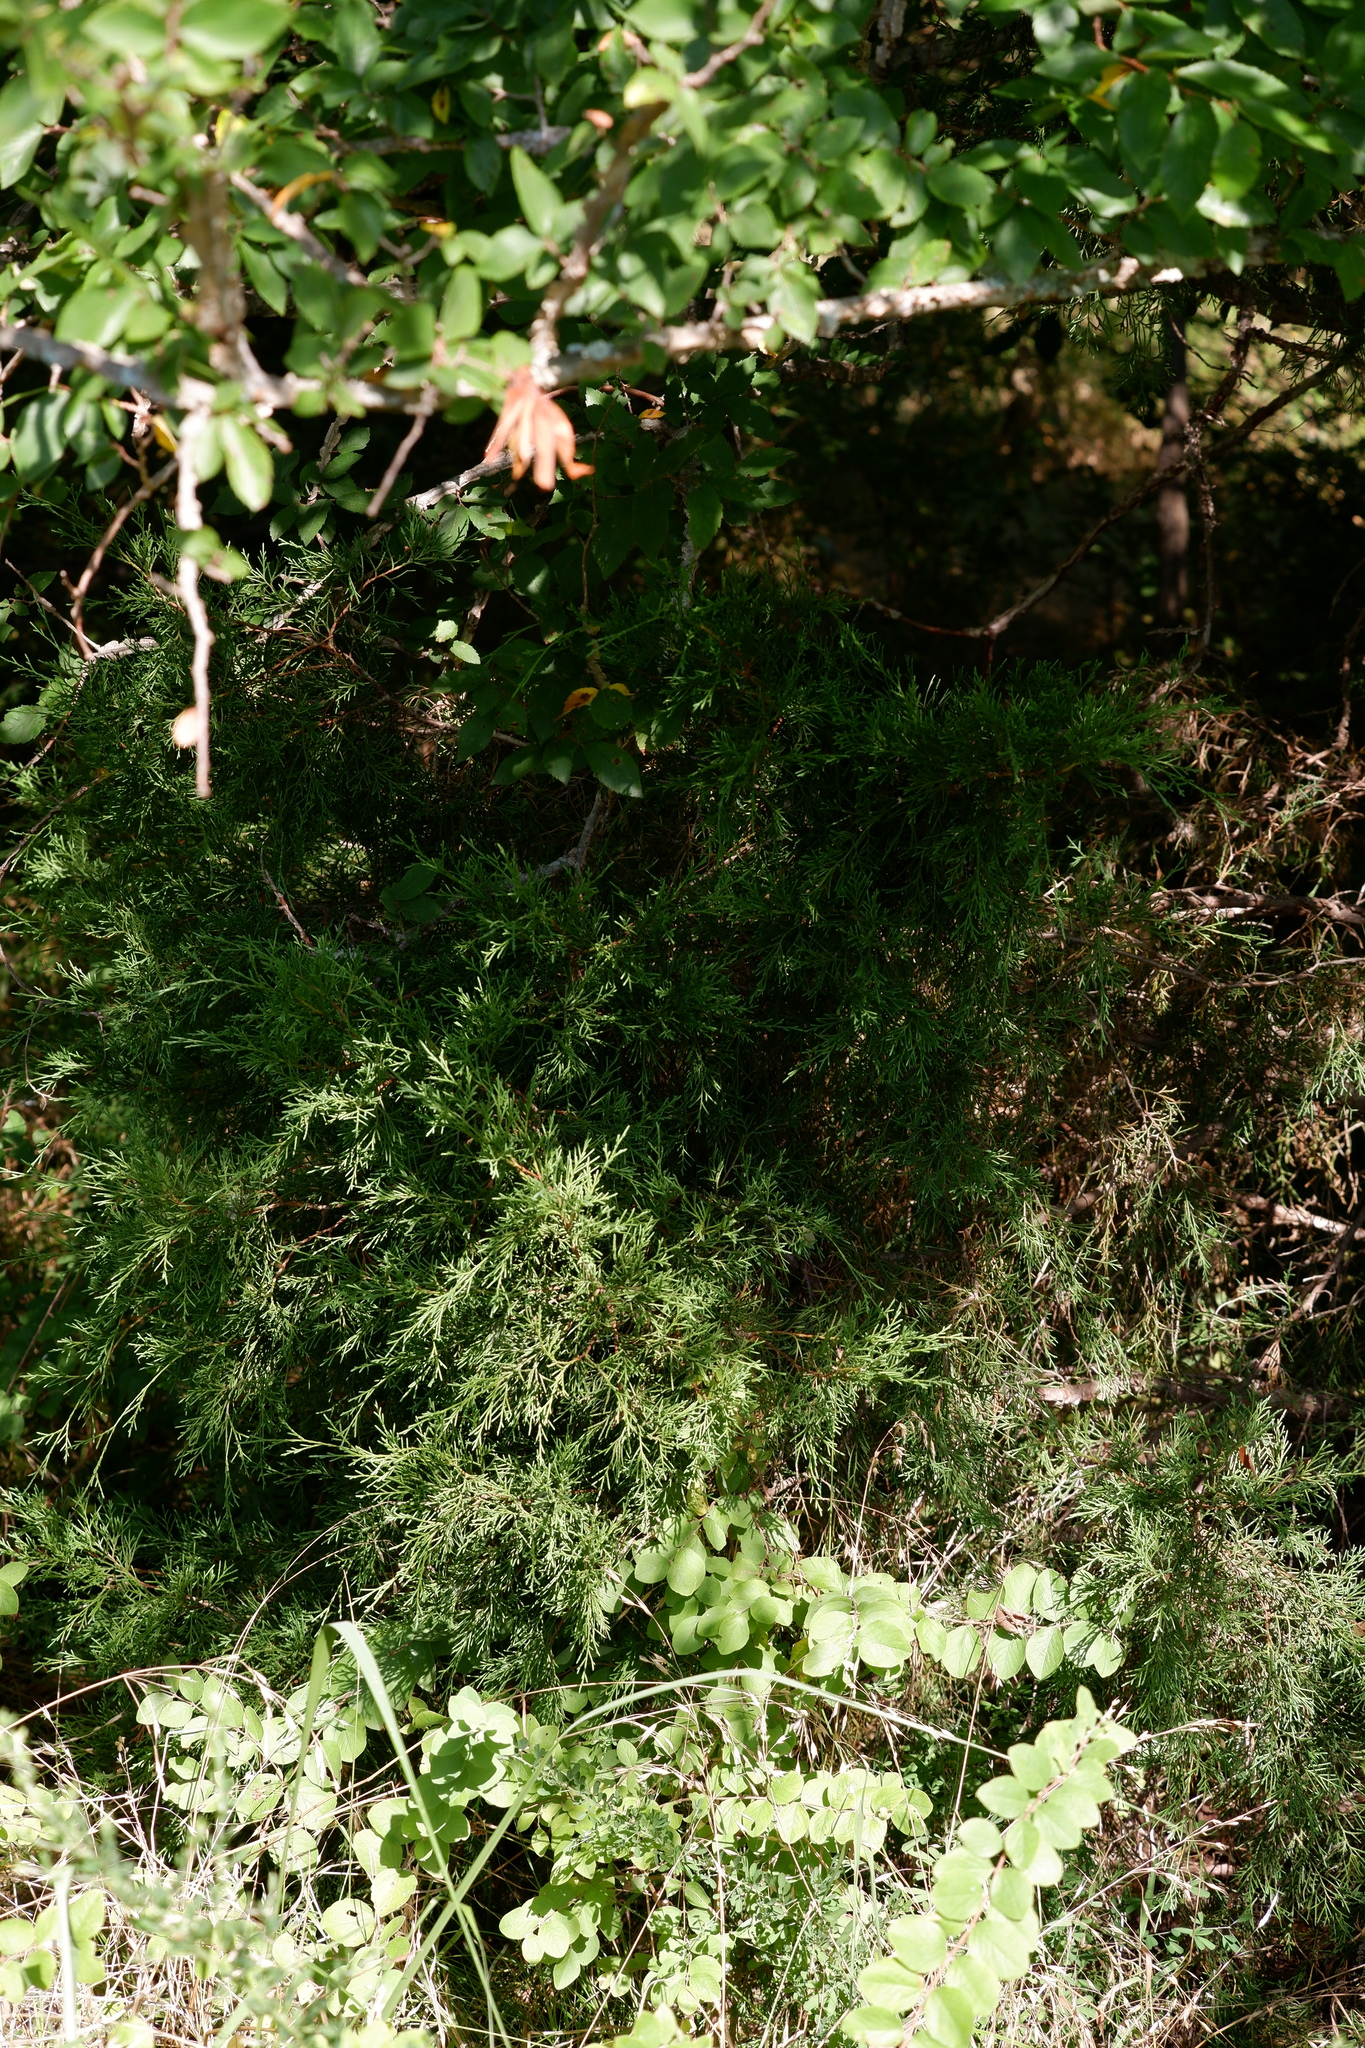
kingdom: Plantae
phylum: Tracheophyta
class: Pinopsida
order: Pinales
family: Cupressaceae
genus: Juniperus
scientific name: Juniperus virginiana
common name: Red juniper
